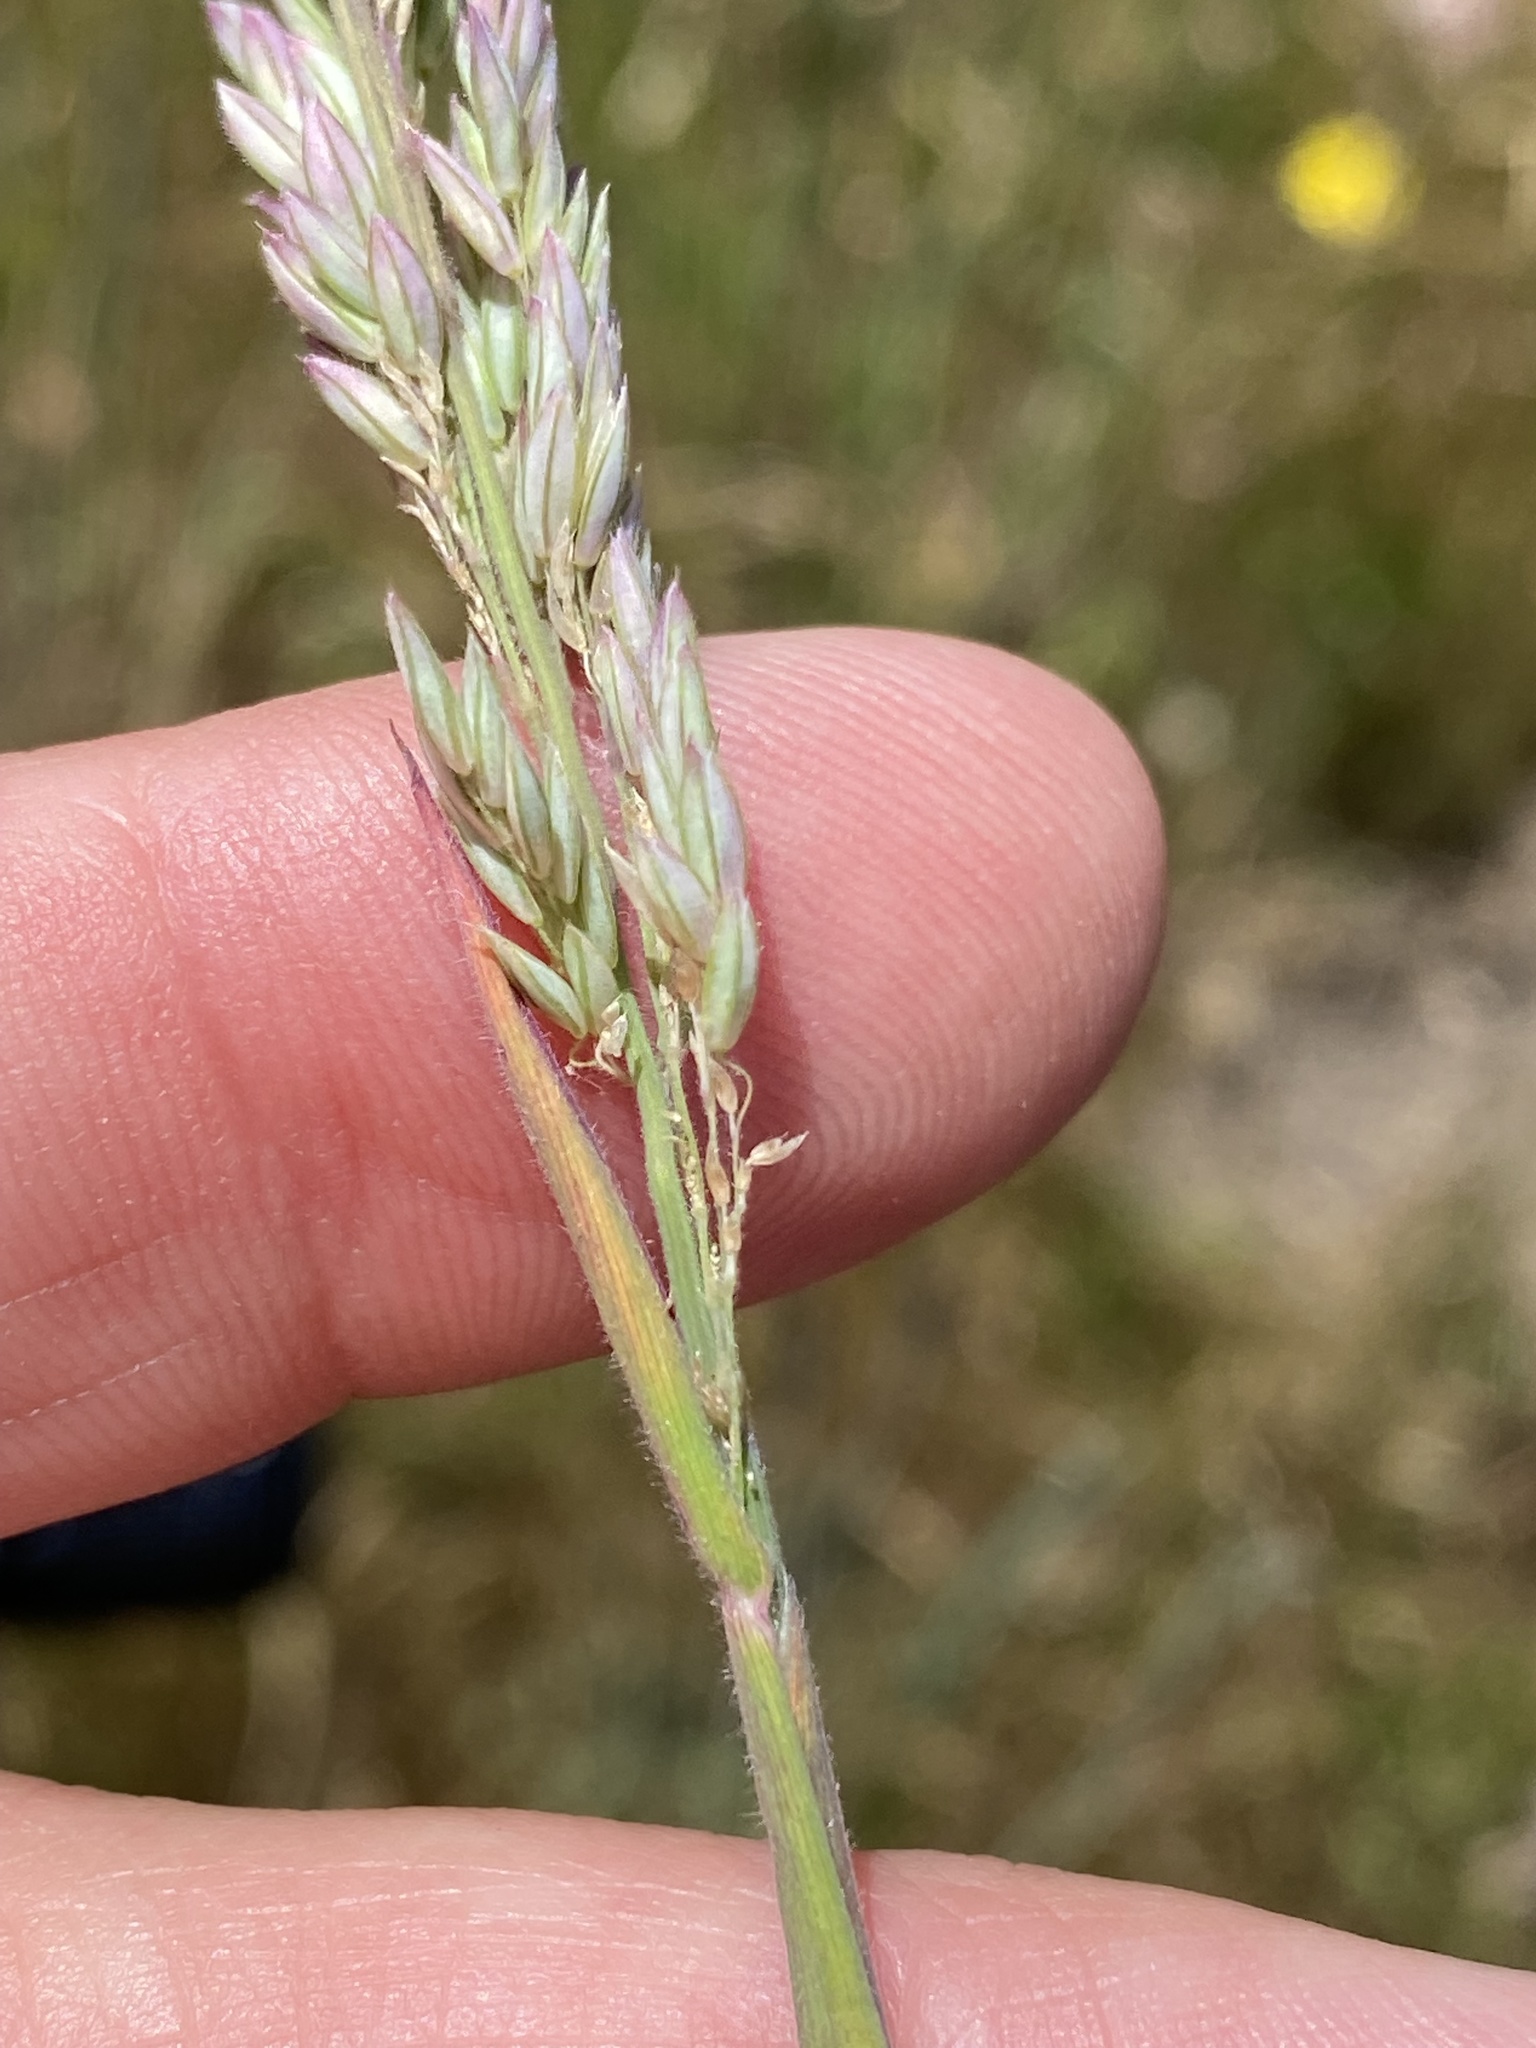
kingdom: Plantae
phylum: Tracheophyta
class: Liliopsida
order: Poales
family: Poaceae
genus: Holcus
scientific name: Holcus lanatus
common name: Yorkshire-fog
